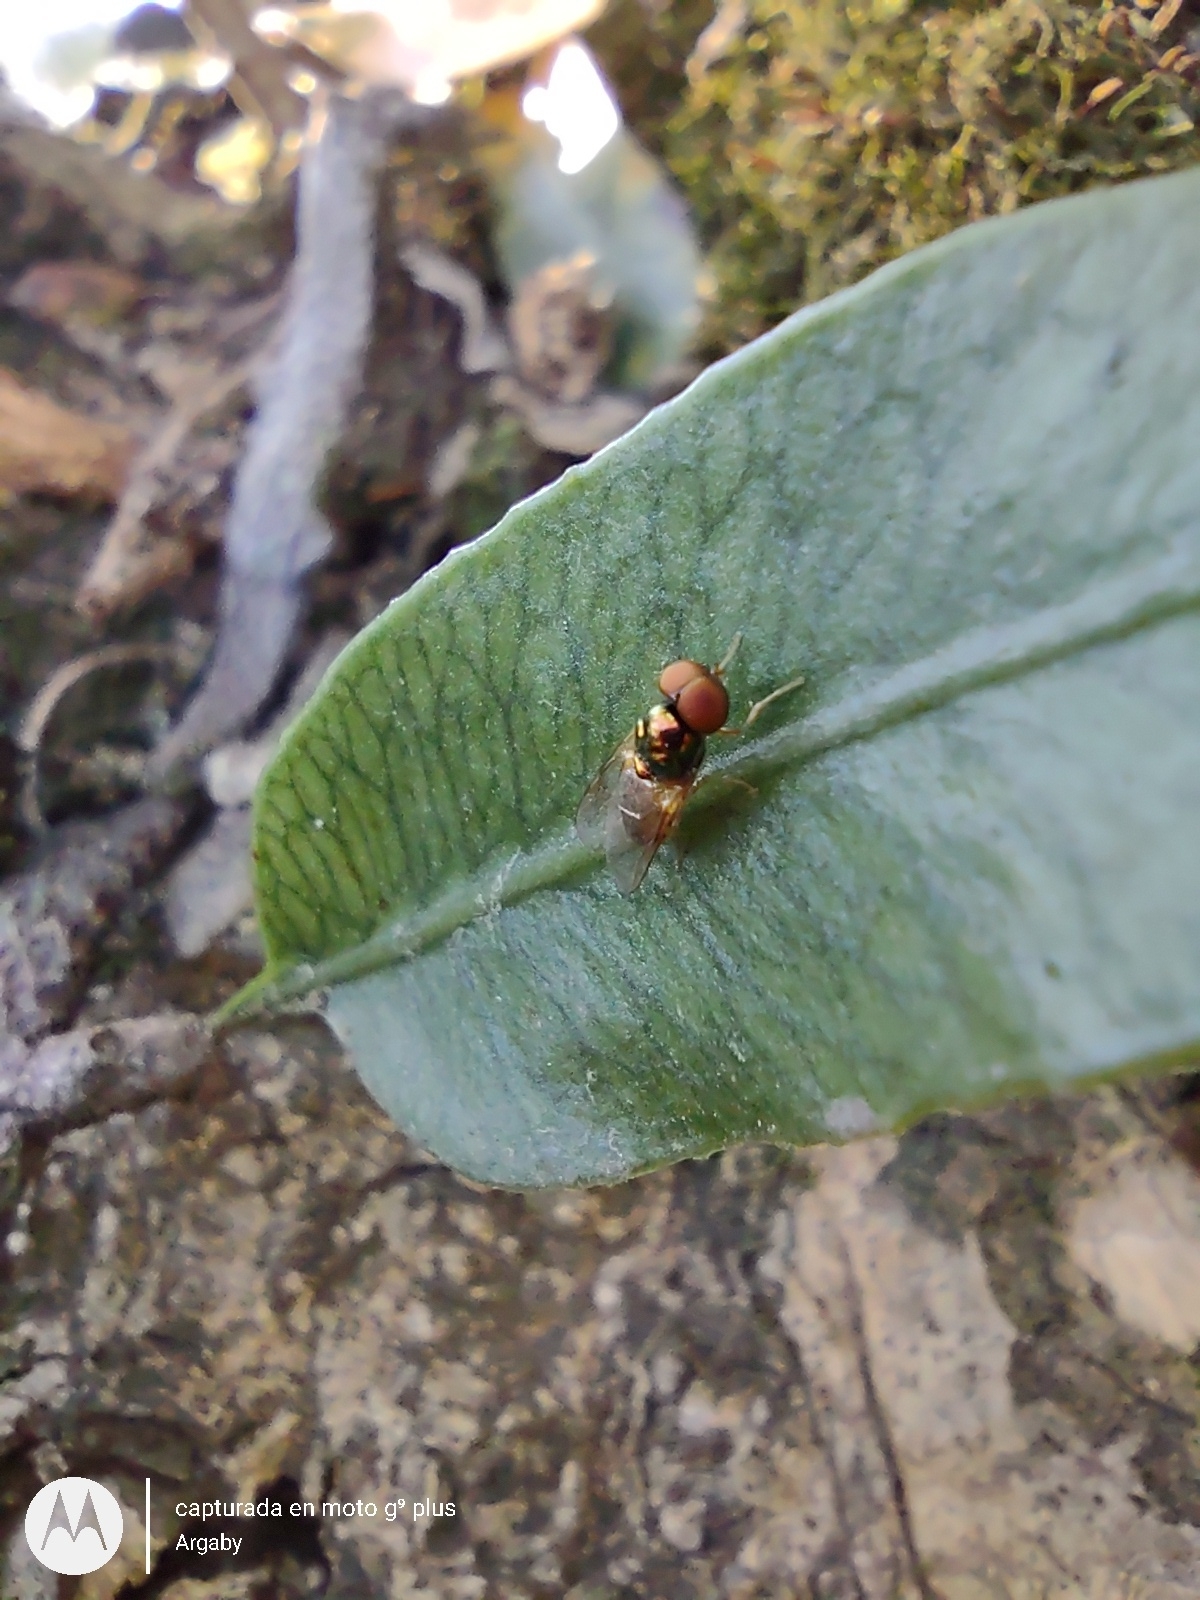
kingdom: Animalia
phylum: Arthropoda
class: Insecta
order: Diptera
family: Stratiomyidae
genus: Microchrysa
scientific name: Microchrysa bicolor
